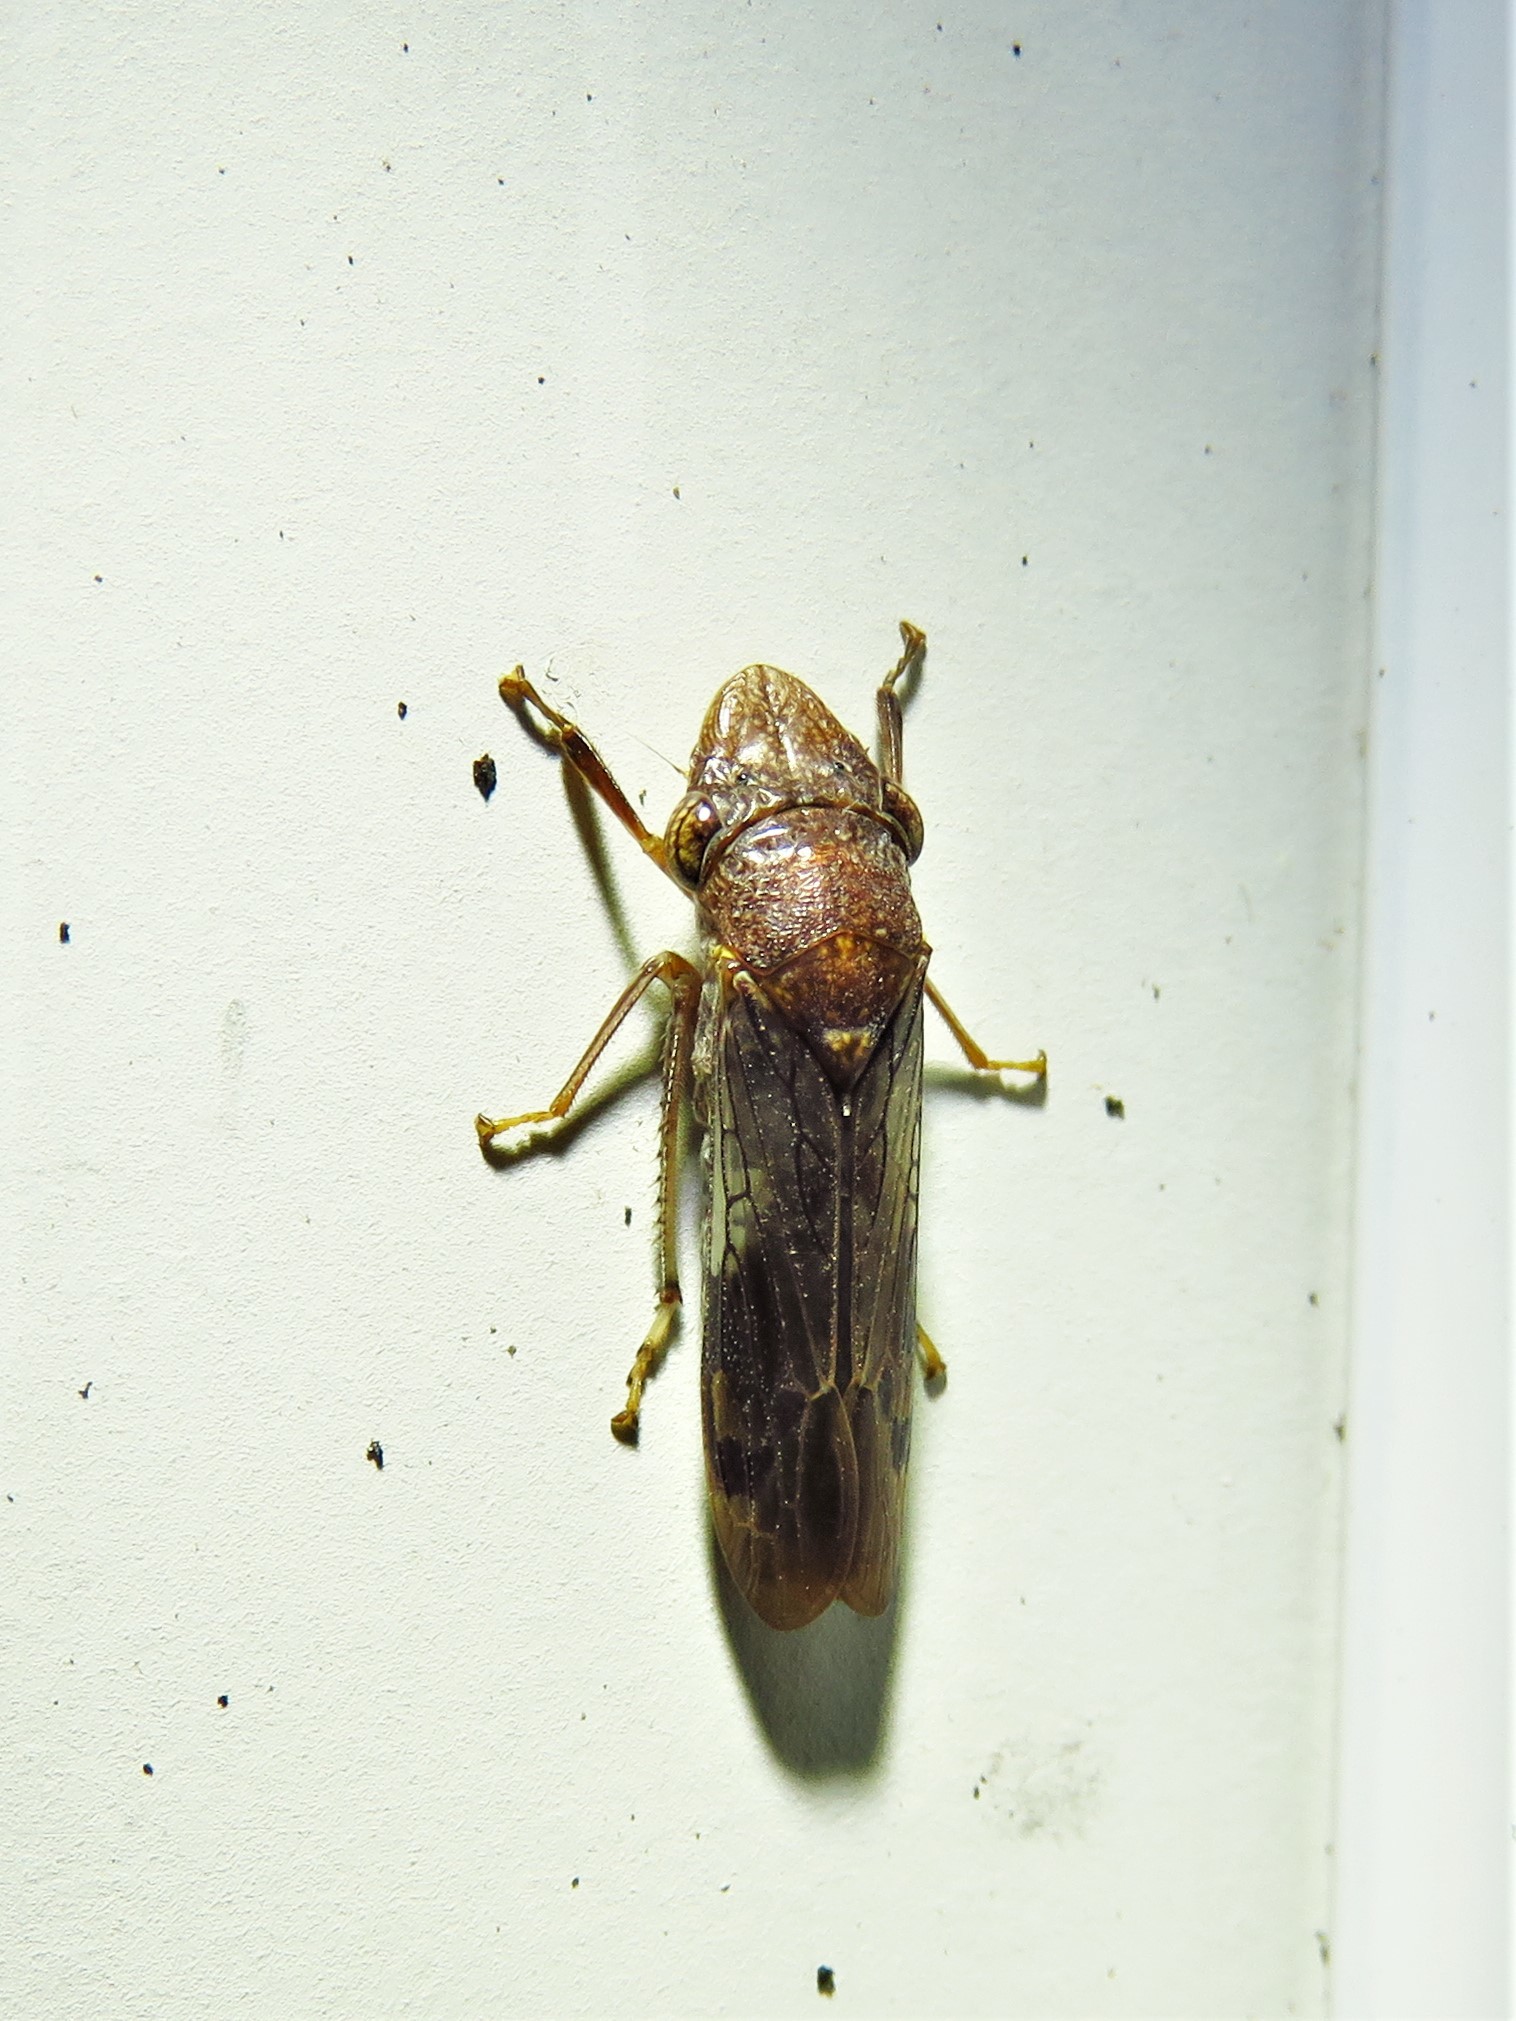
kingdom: Animalia
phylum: Arthropoda
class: Insecta
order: Hemiptera
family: Cicadellidae
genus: Homalodisca
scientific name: Homalodisca vitripennis
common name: Glassy-winged sharpshooter
